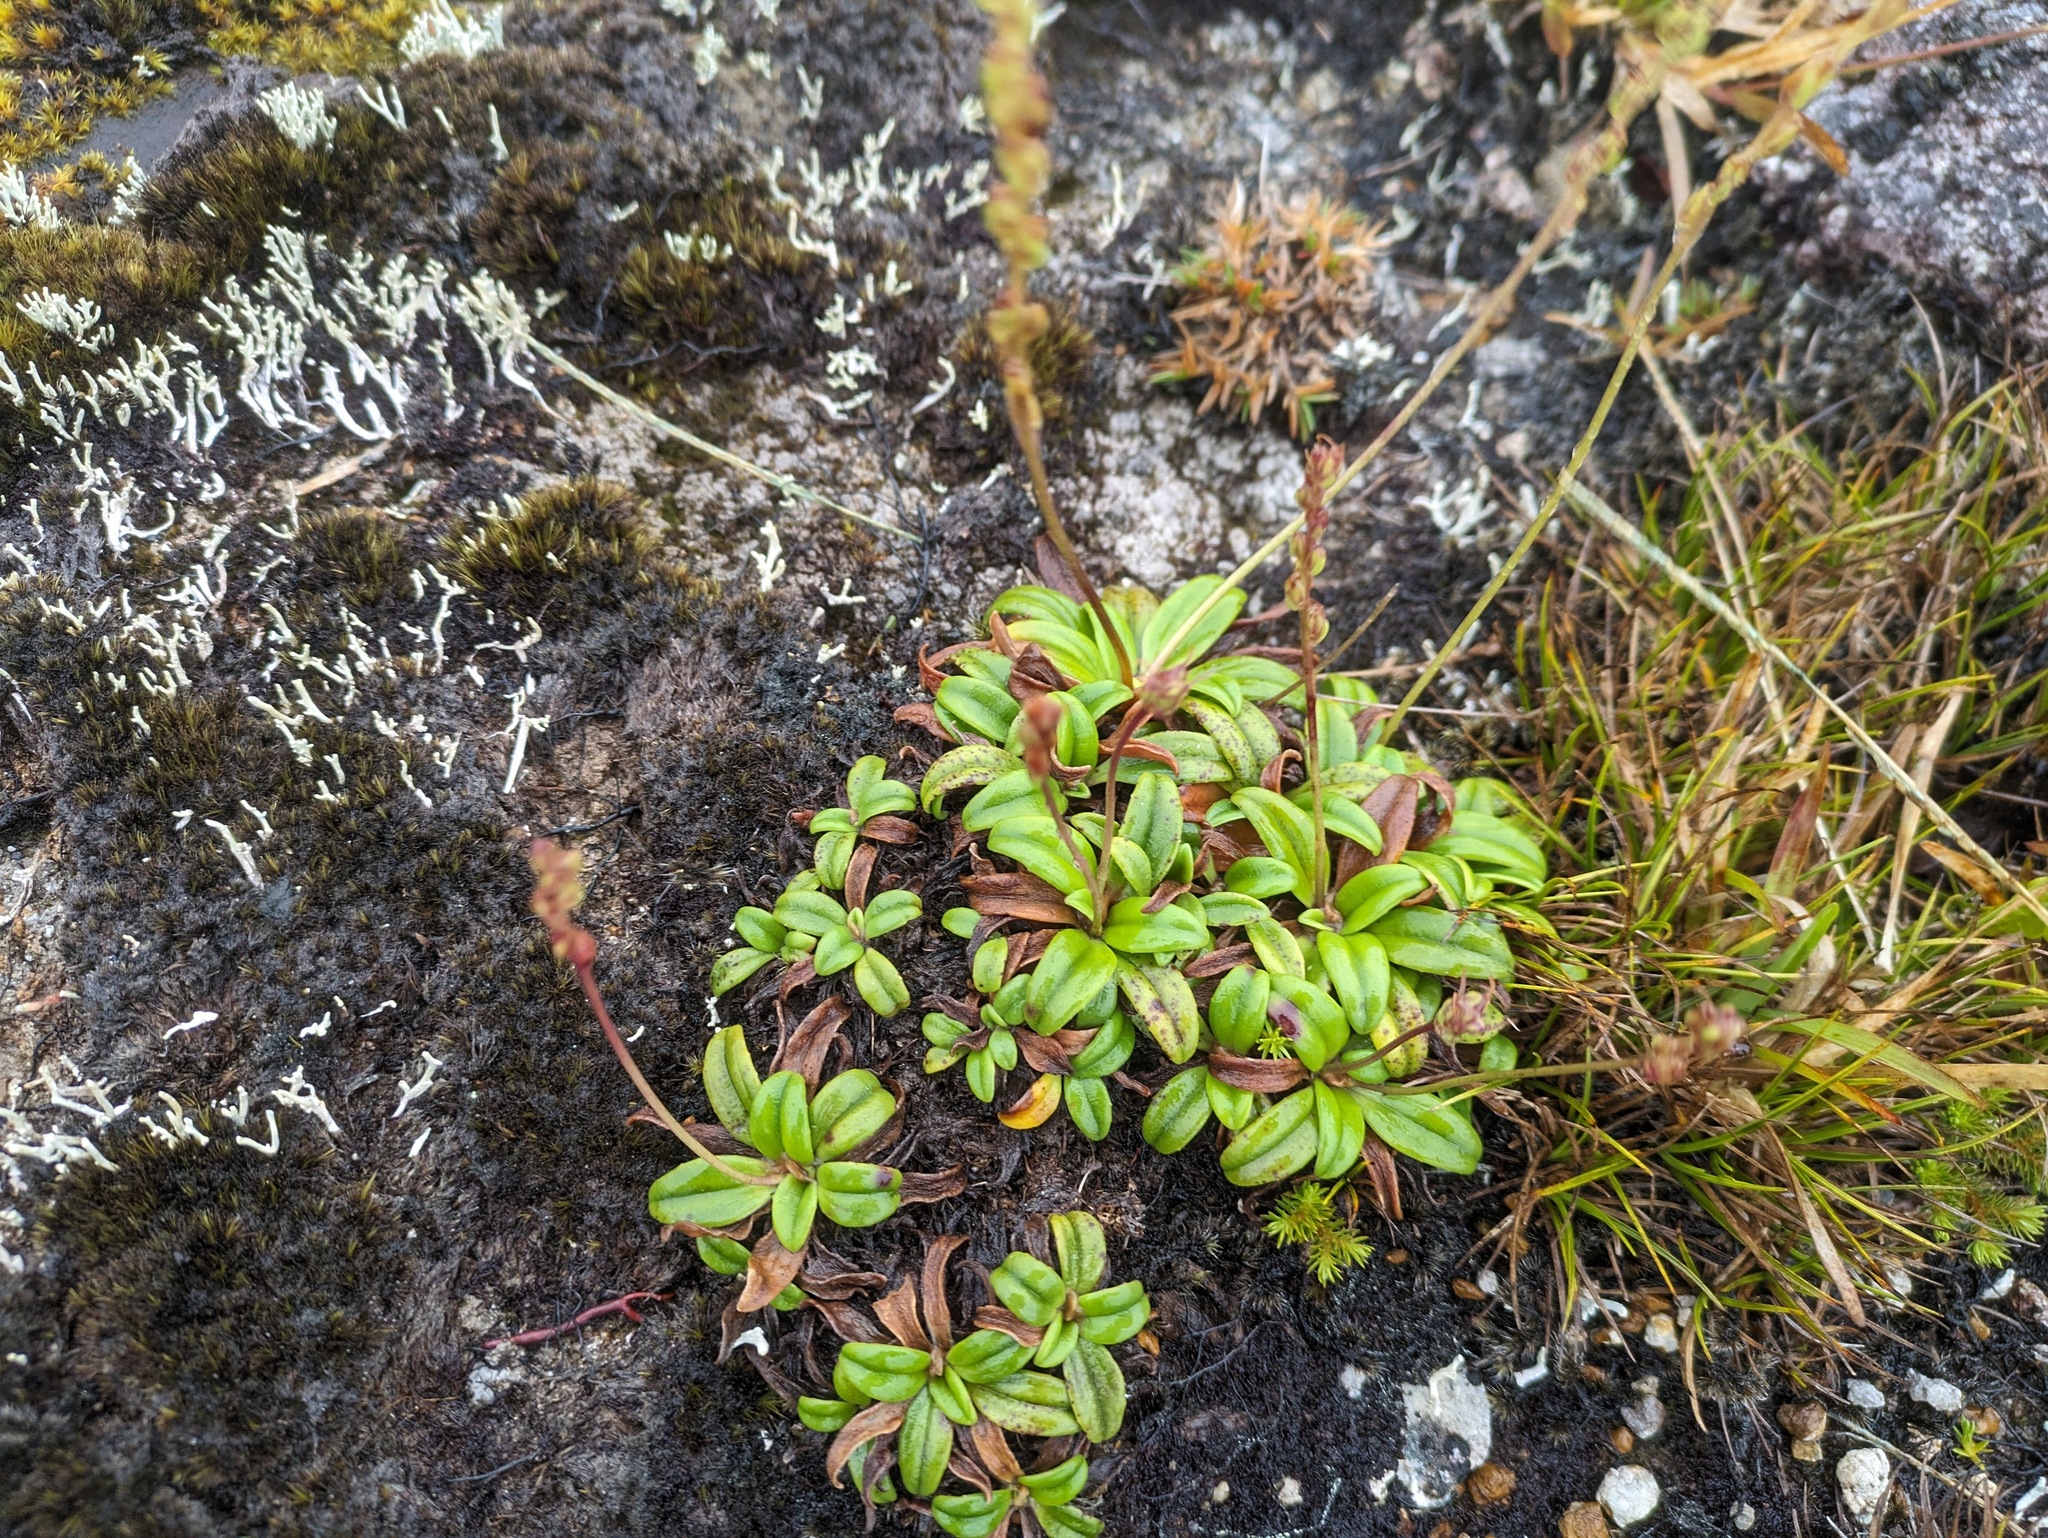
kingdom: Plantae
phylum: Tracheophyta
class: Magnoliopsida
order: Lamiales
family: Plantaginaceae
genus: Plantago
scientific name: Plantago pachyphylla
